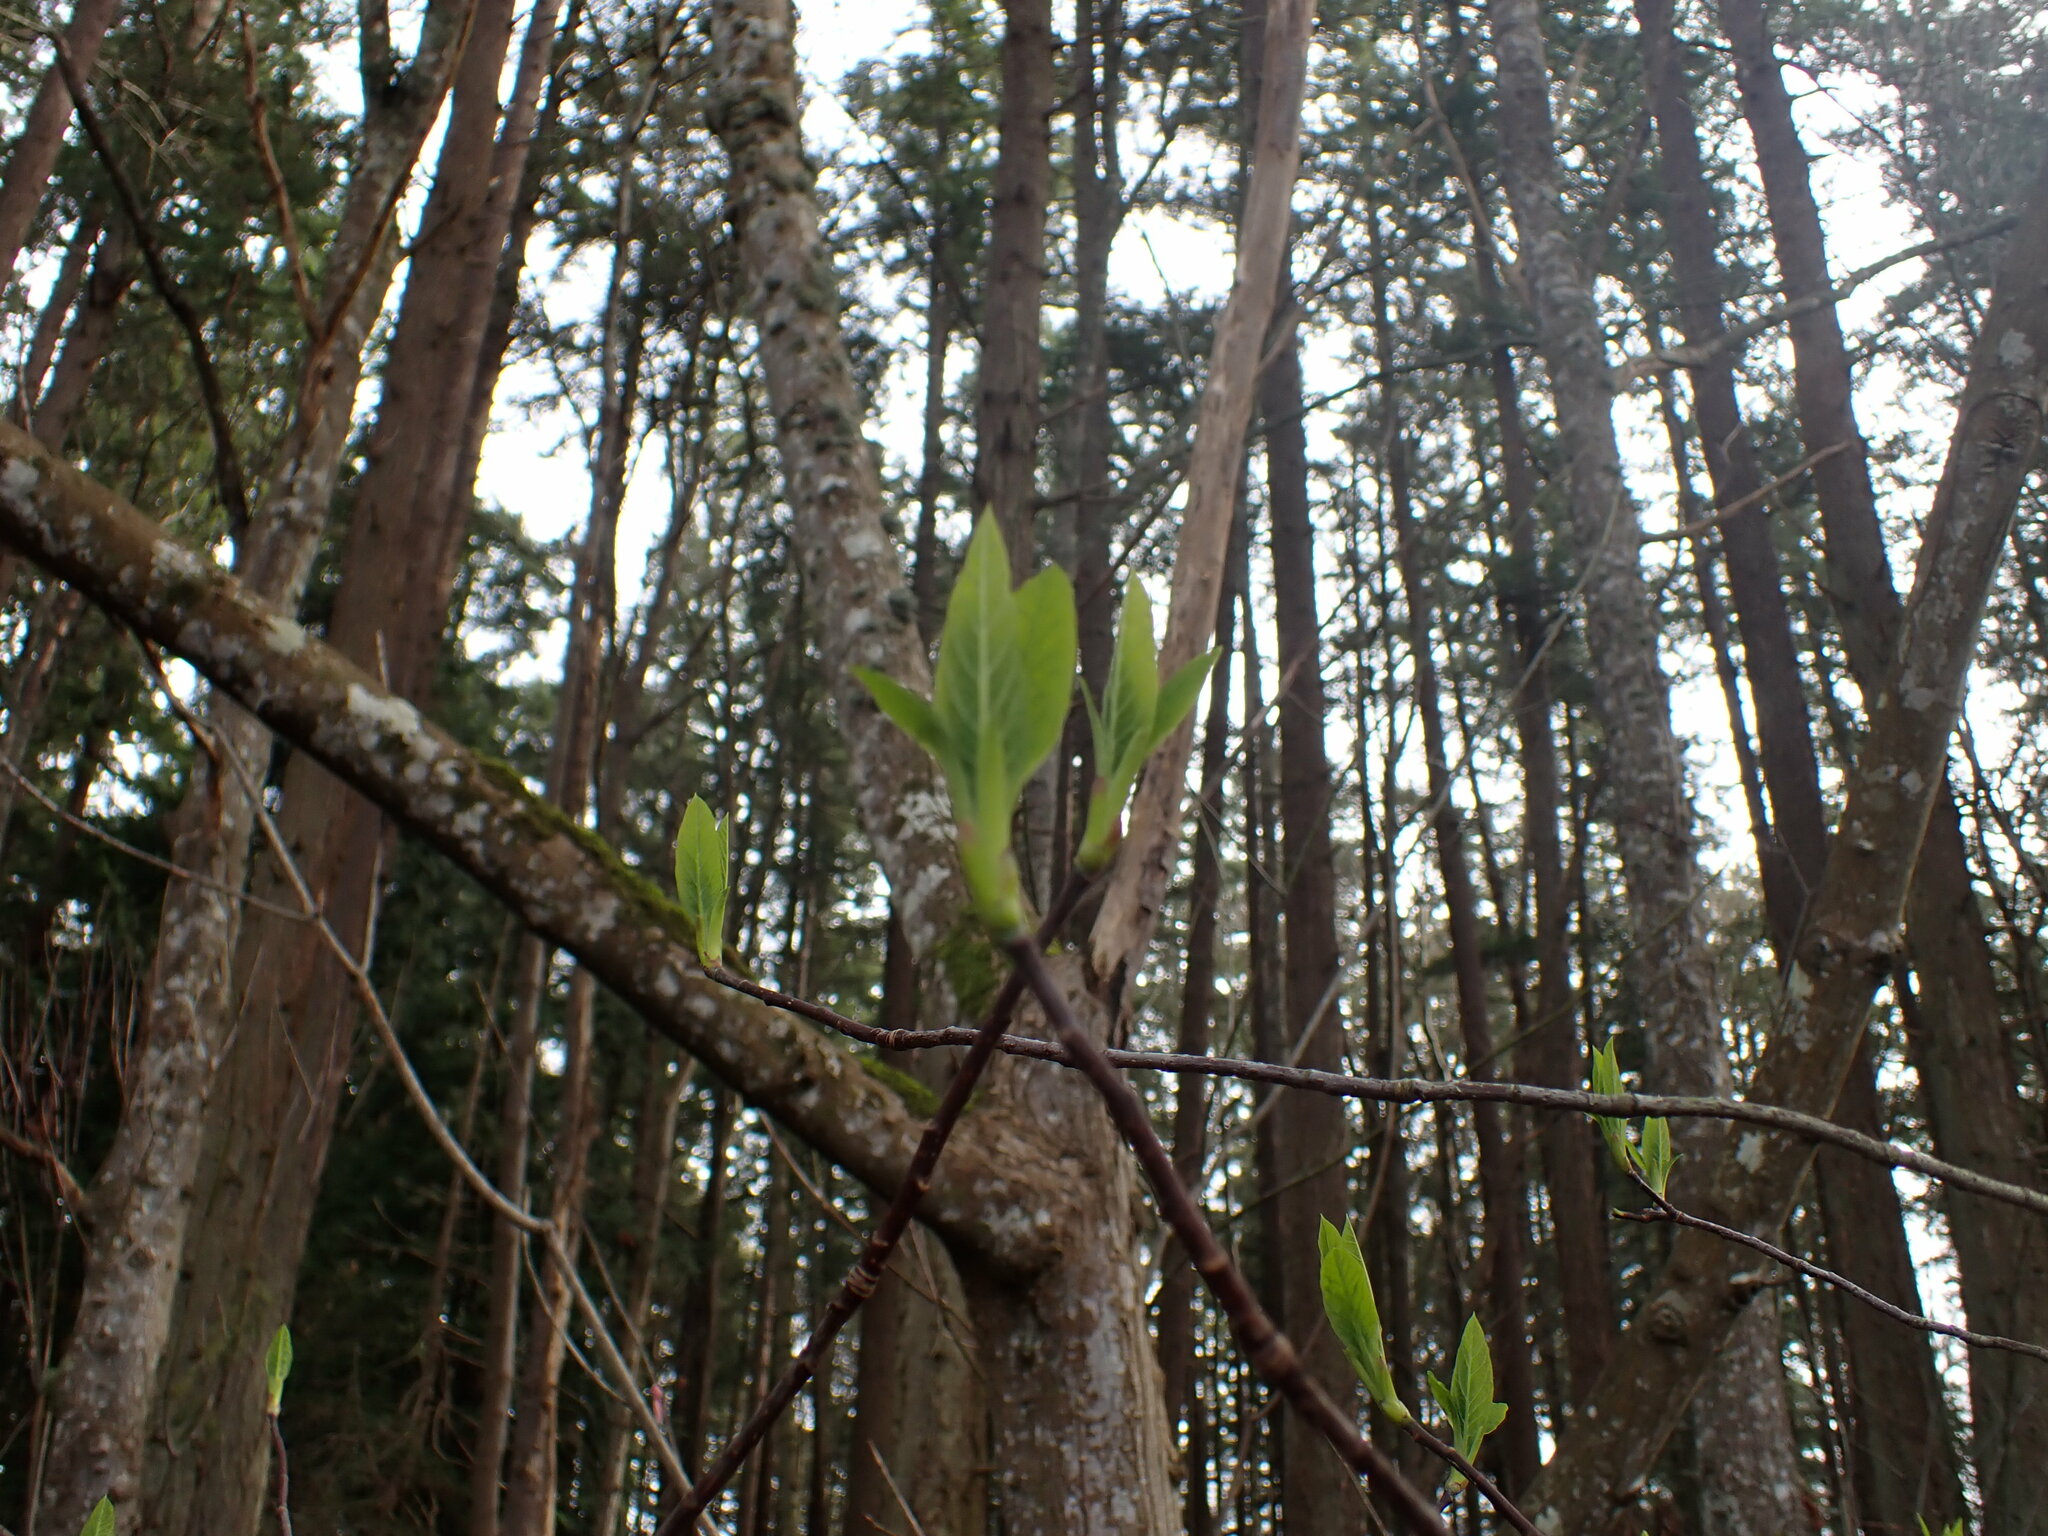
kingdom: Plantae
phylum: Tracheophyta
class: Magnoliopsida
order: Rosales
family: Rosaceae
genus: Oemleria
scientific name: Oemleria cerasiformis
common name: Osoberry
